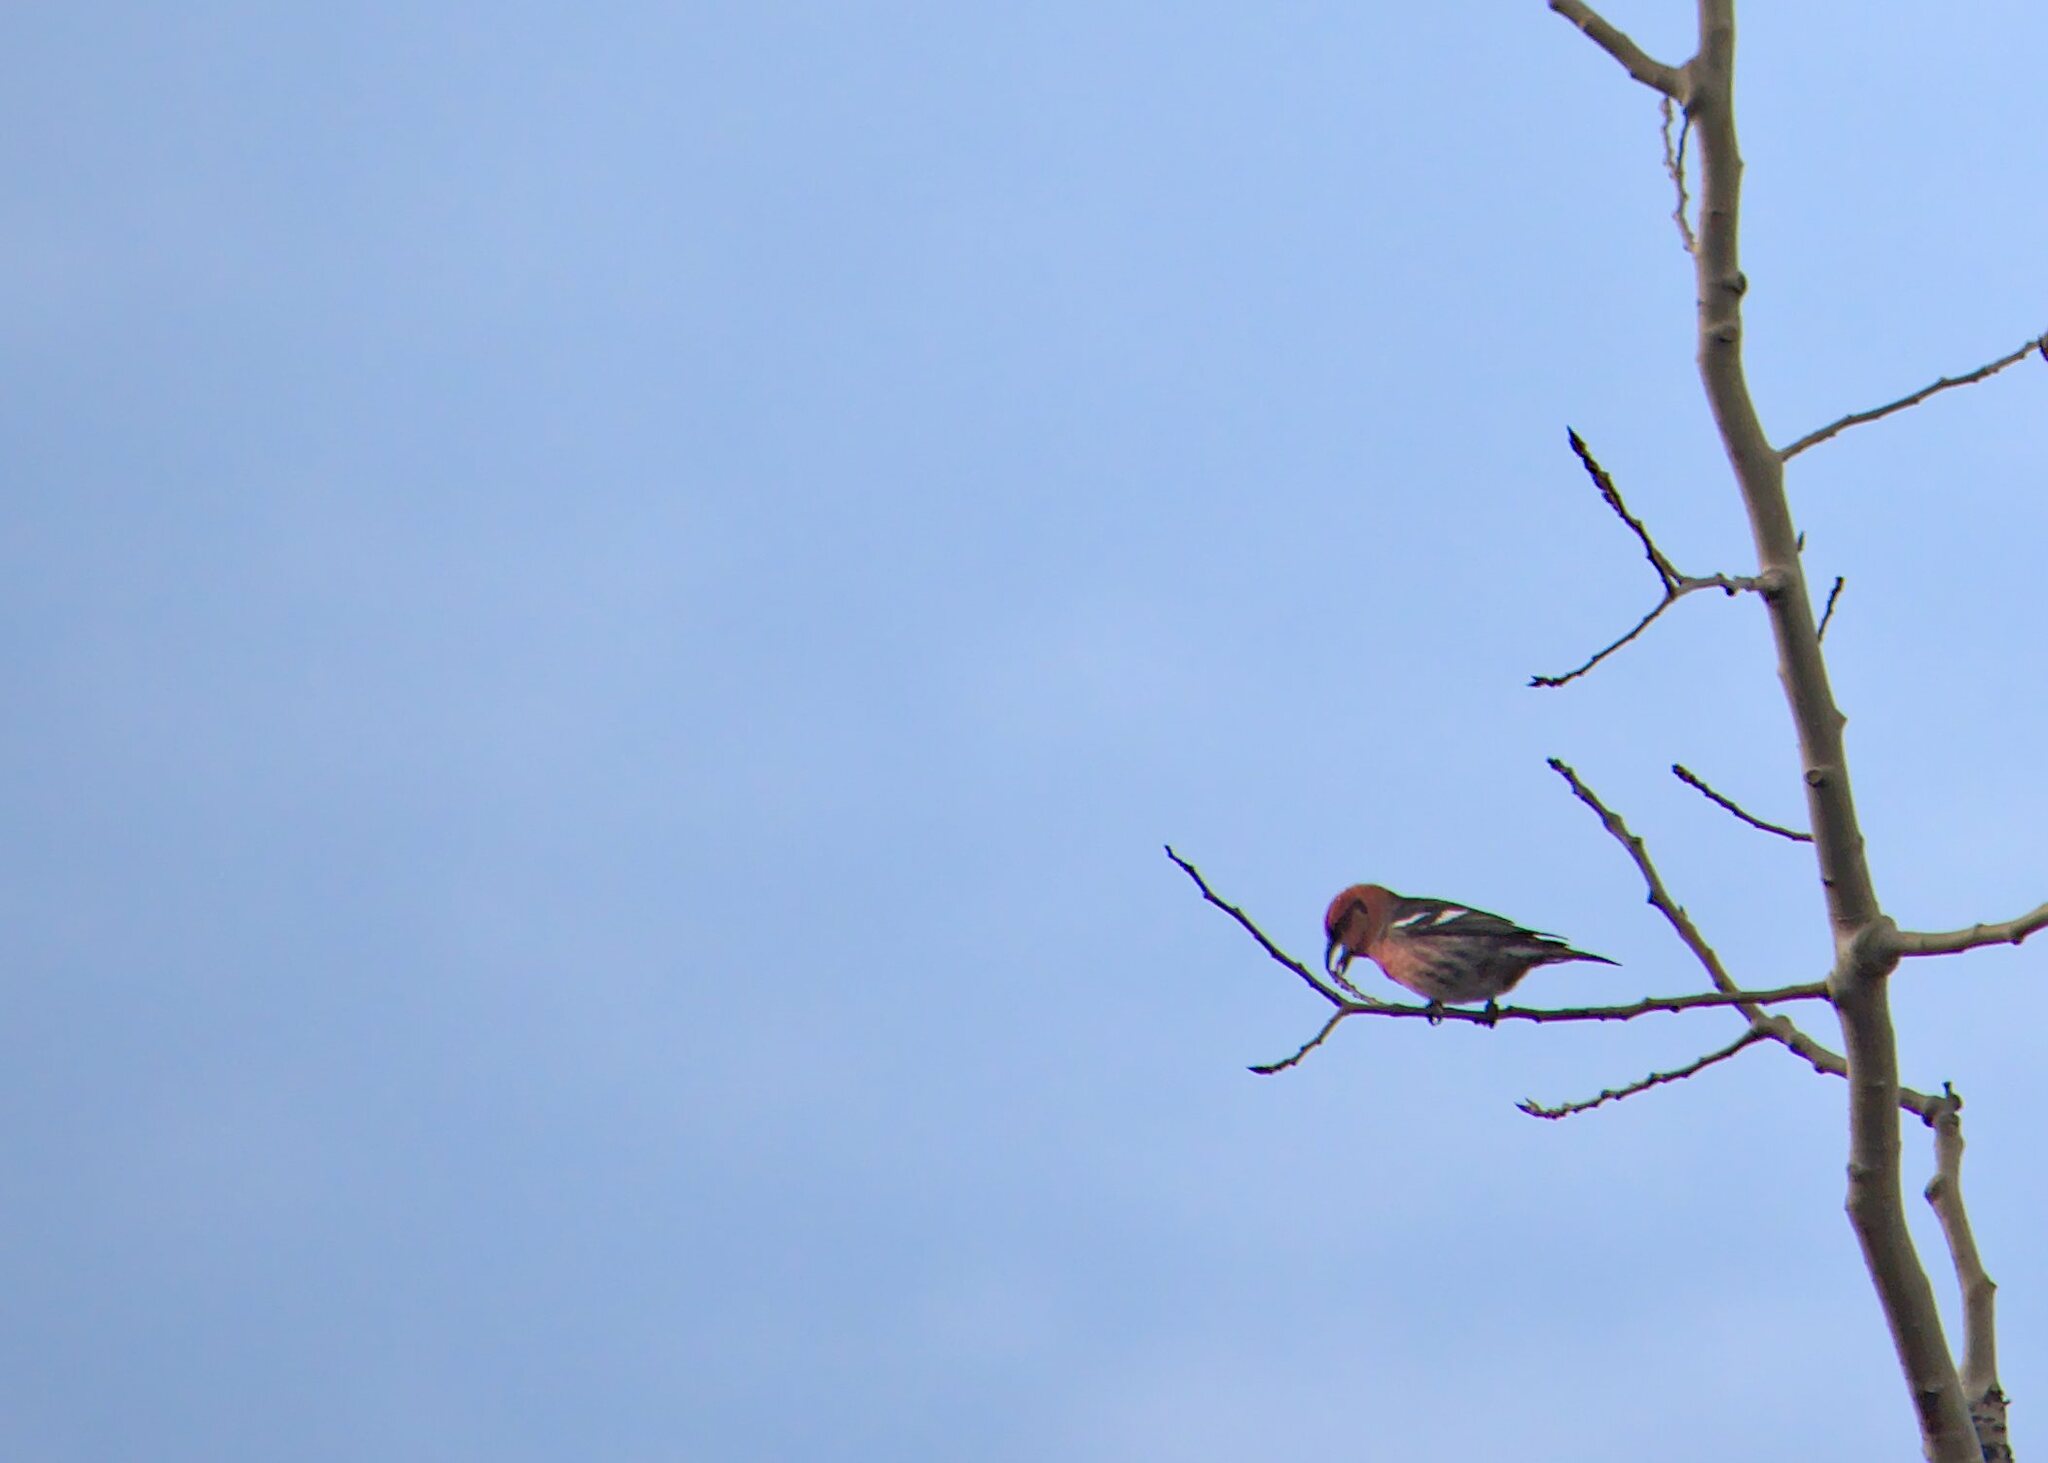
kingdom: Animalia
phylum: Chordata
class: Aves
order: Passeriformes
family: Fringillidae
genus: Loxia
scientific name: Loxia leucoptera
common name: Two-barred crossbill
